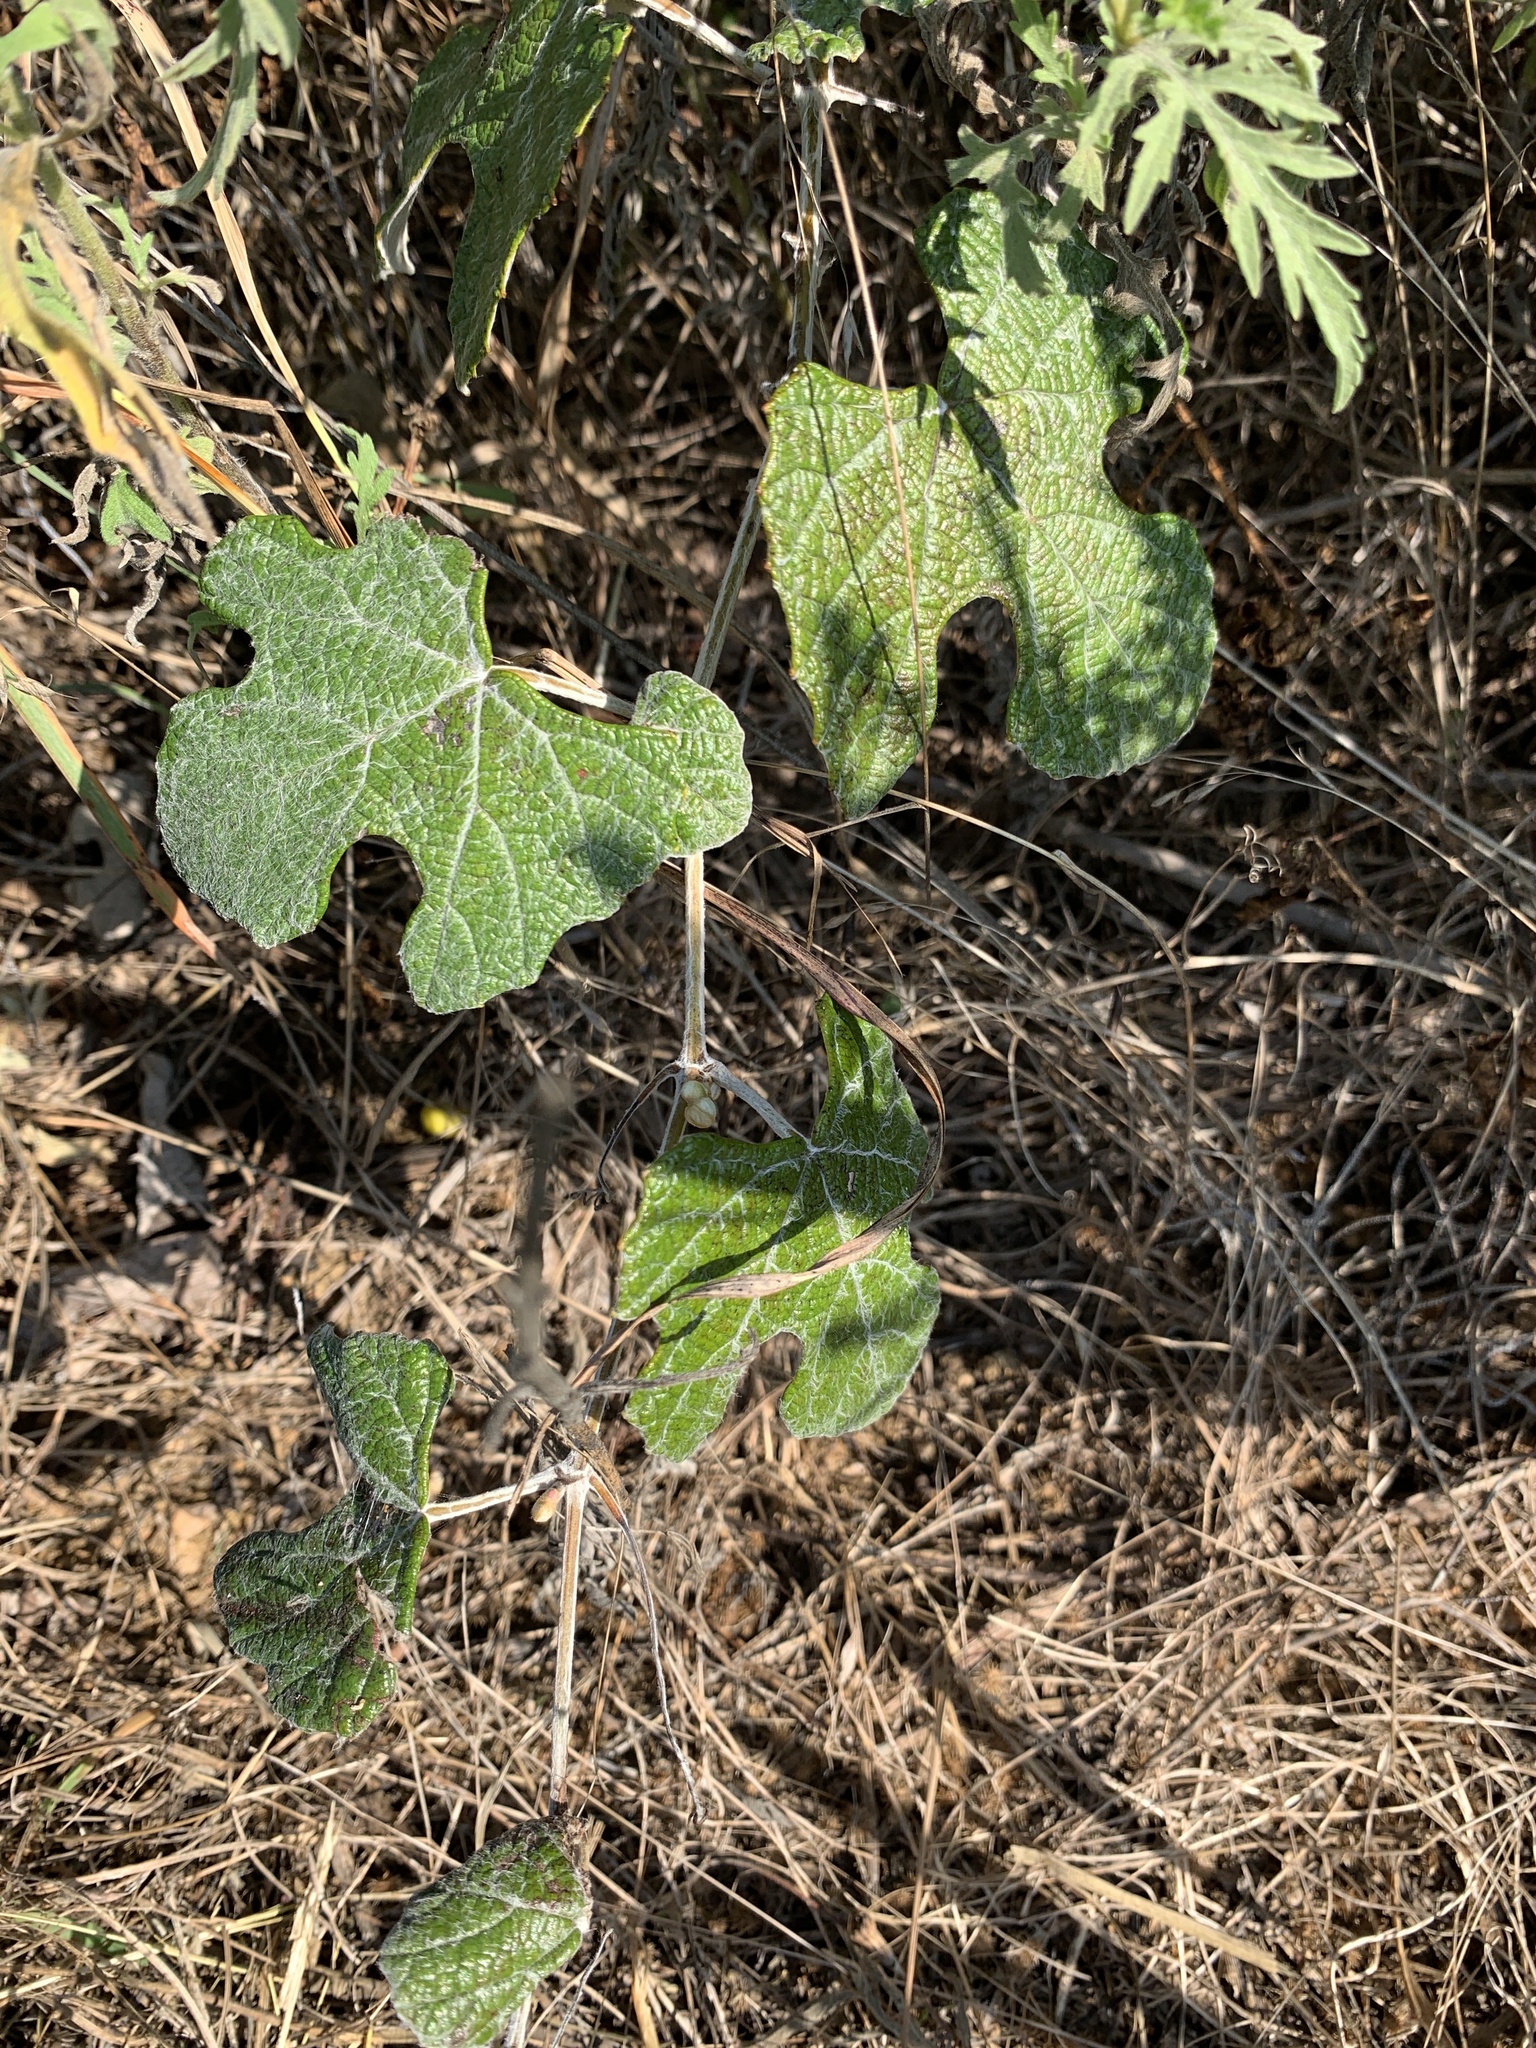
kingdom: Plantae
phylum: Tracheophyta
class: Magnoliopsida
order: Vitales
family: Vitaceae
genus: Vitis
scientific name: Vitis mustangensis
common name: Mustang grape
